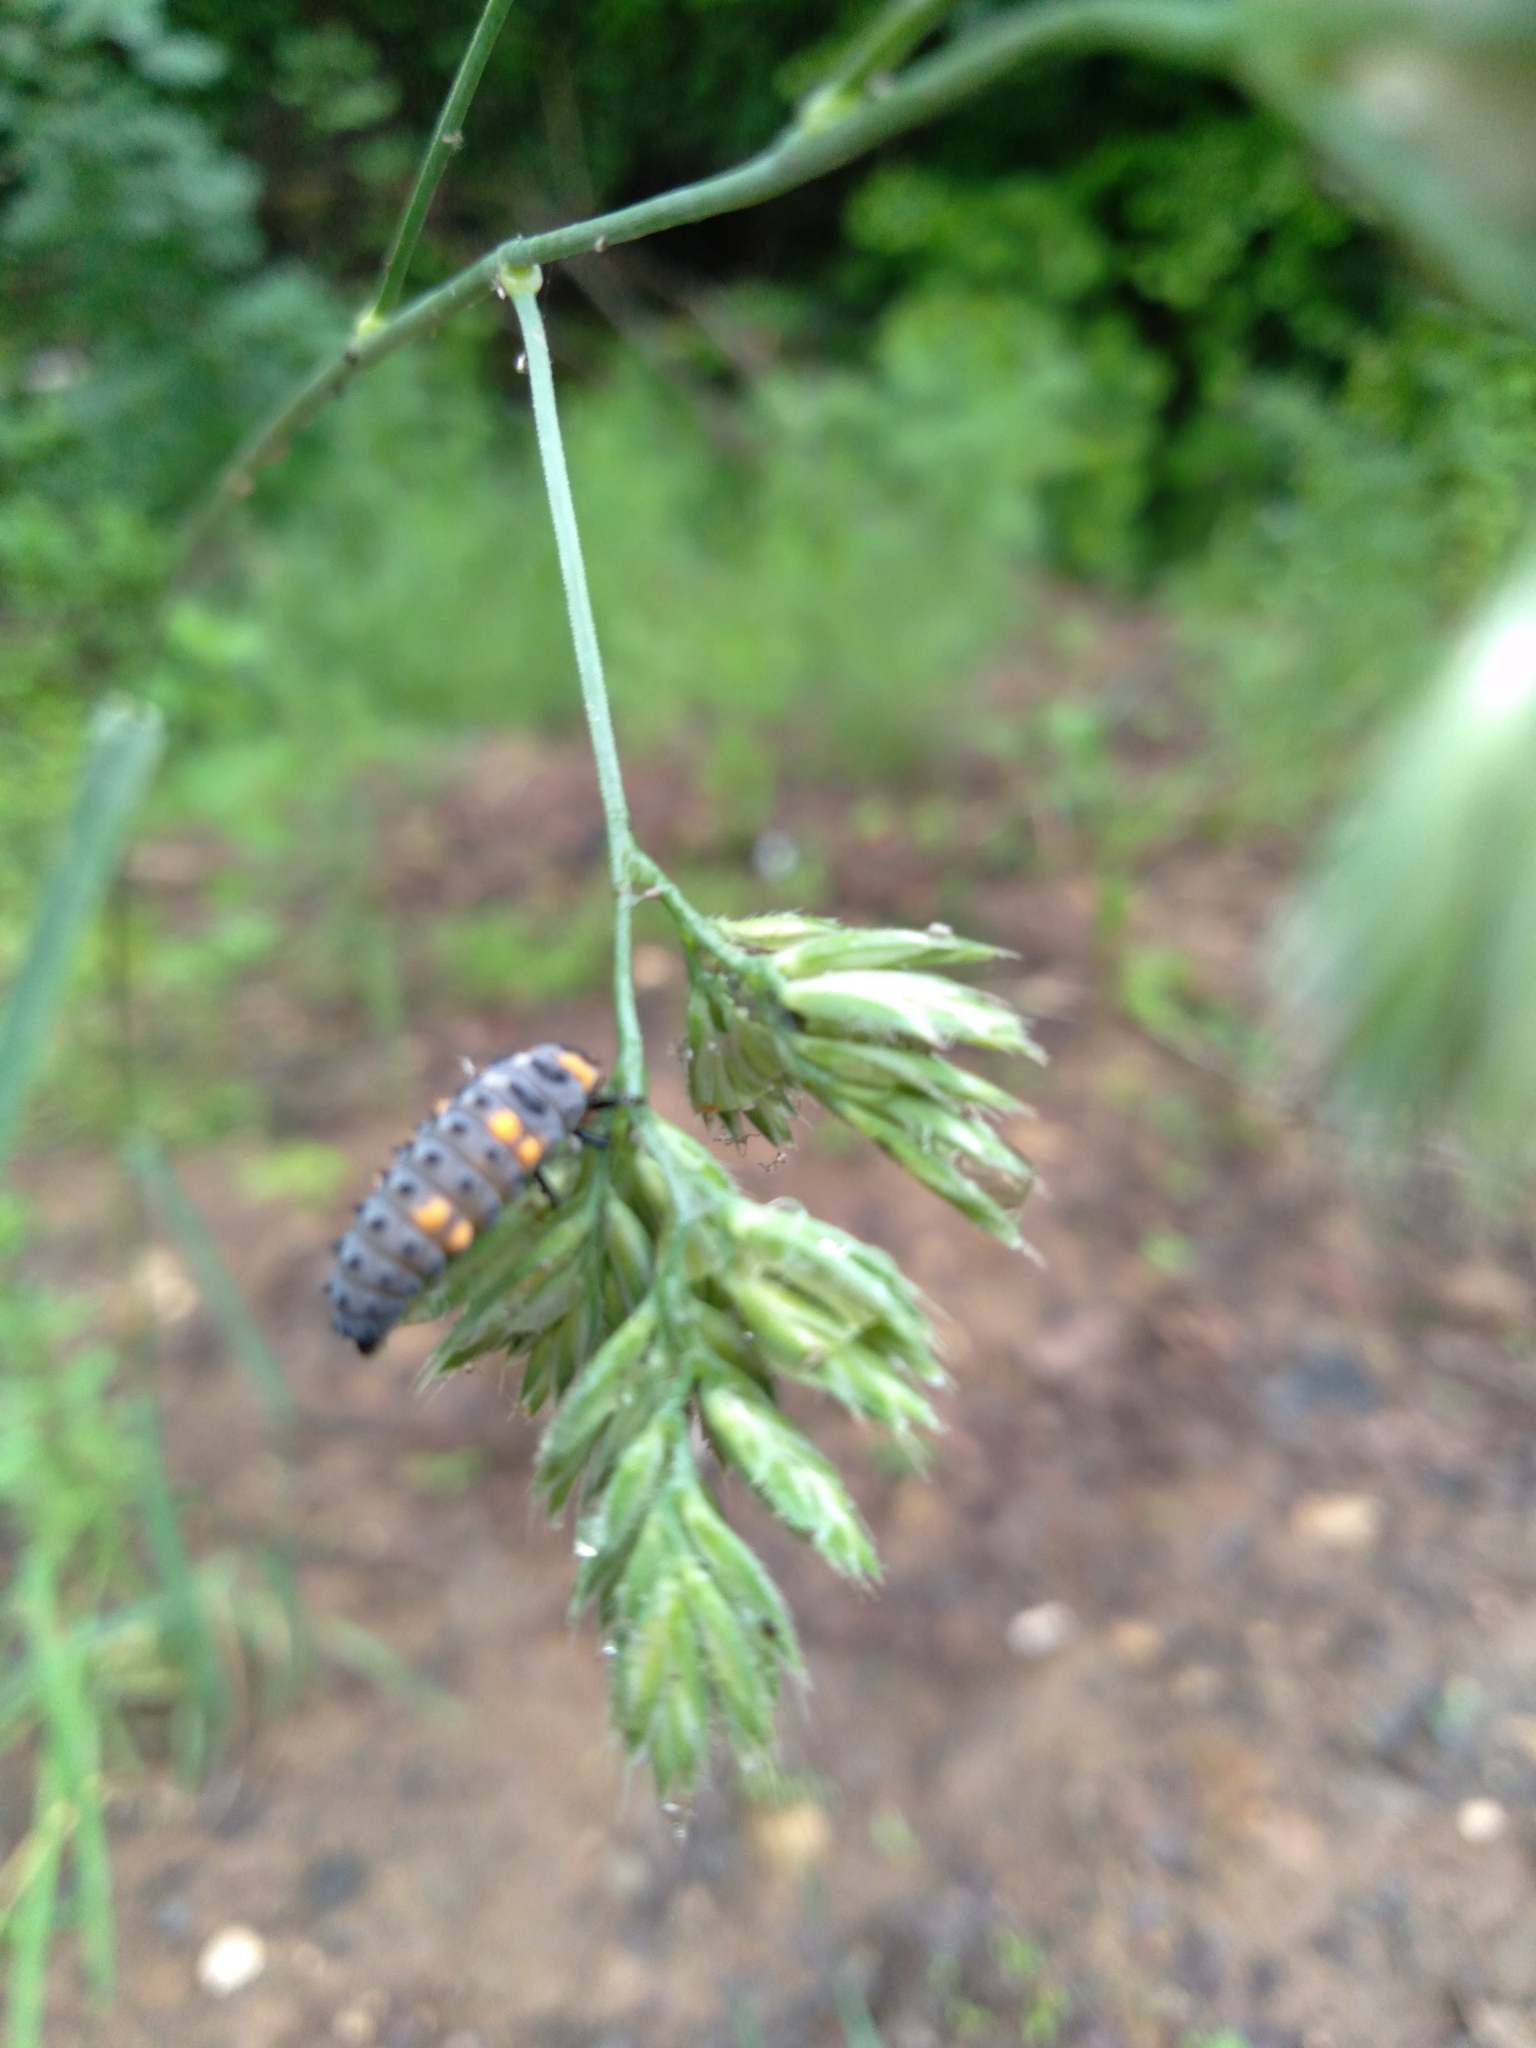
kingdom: Animalia
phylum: Arthropoda
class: Insecta
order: Coleoptera
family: Coccinellidae
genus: Coccinella
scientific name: Coccinella septempunctata
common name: Sevenspotted lady beetle
